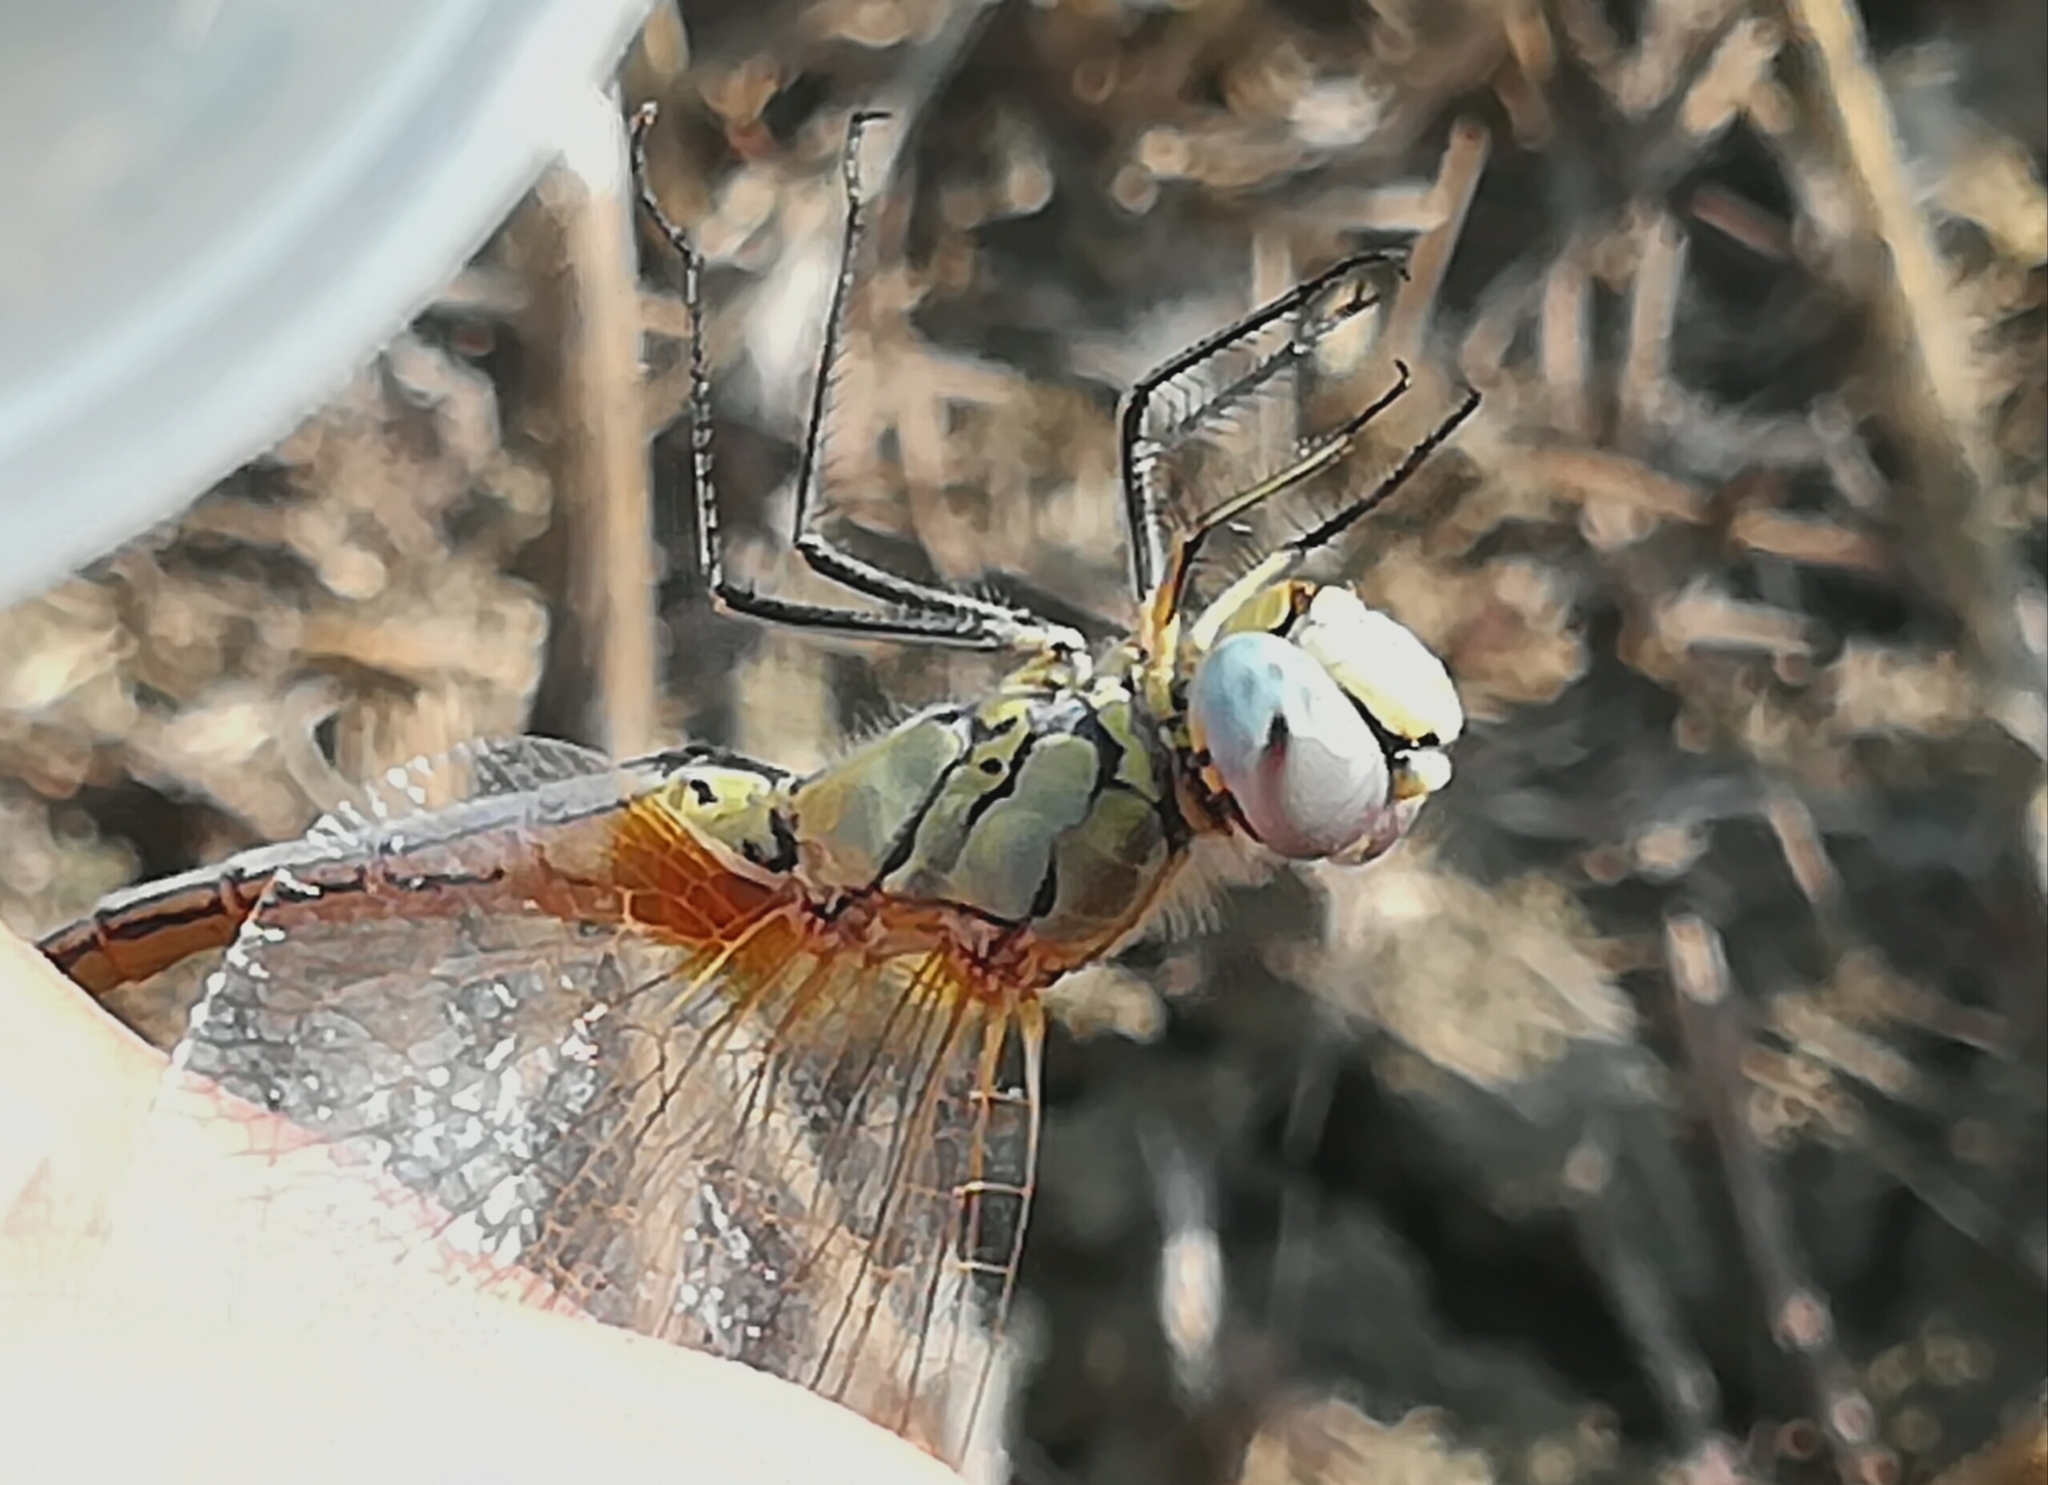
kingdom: Animalia
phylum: Arthropoda
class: Insecta
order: Odonata
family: Libellulidae
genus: Sympetrum
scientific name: Sympetrum fonscolombii
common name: Red-veined darter
